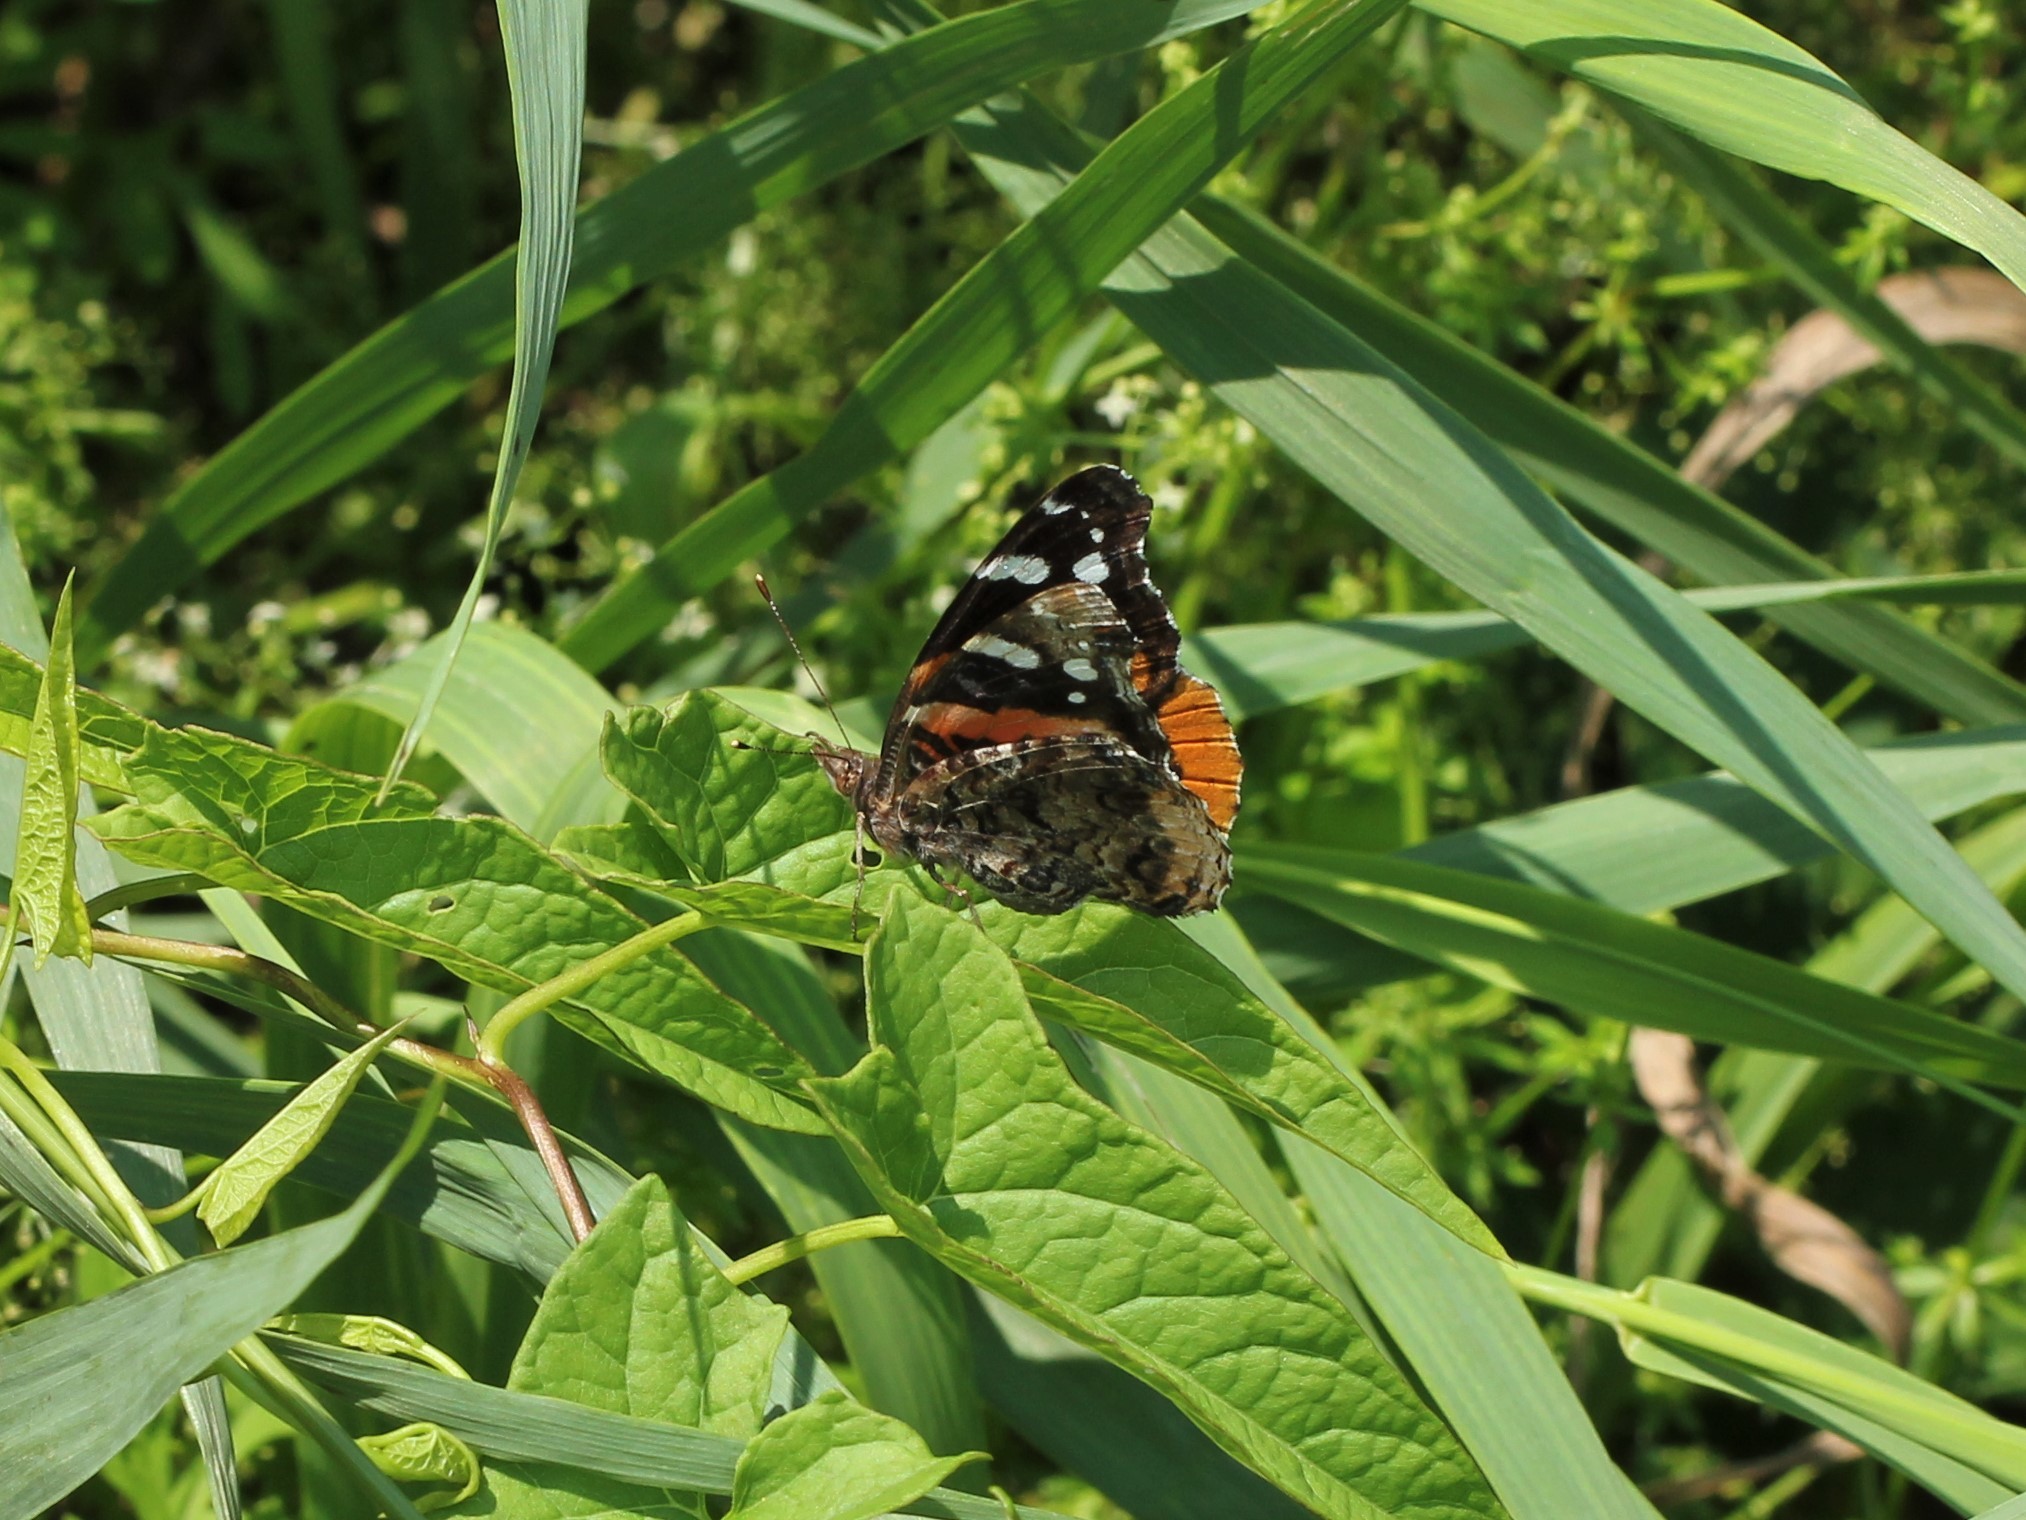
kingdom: Animalia
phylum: Arthropoda
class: Insecta
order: Lepidoptera
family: Nymphalidae
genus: Vanessa
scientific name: Vanessa atalanta
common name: Red admiral
